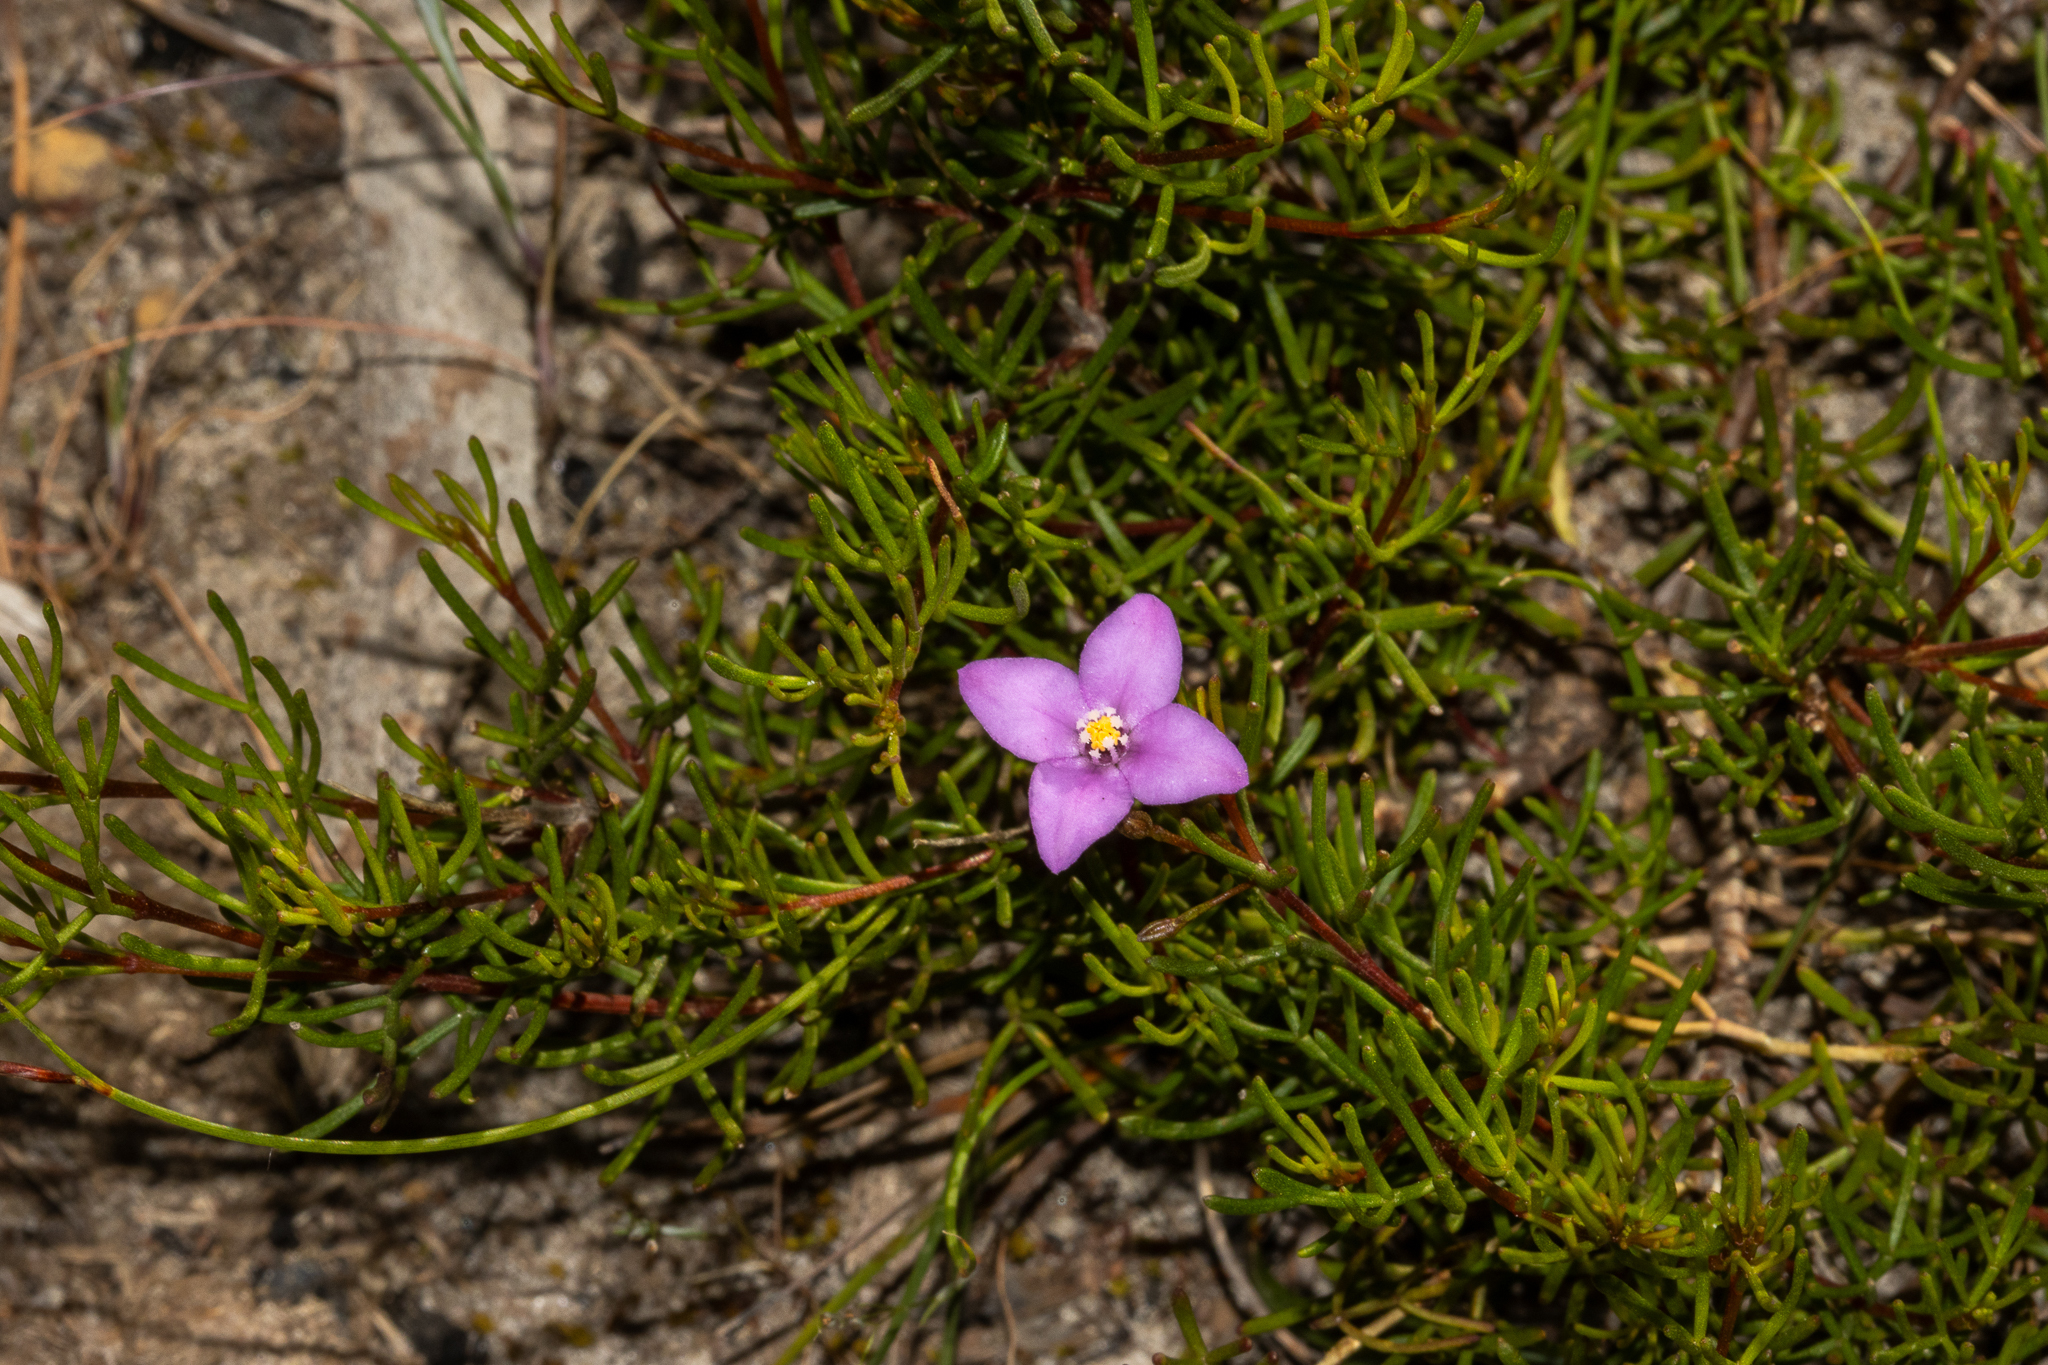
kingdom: Plantae
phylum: Tracheophyta
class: Magnoliopsida
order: Sapindales
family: Rutaceae
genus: Boronia
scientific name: Boronia filifolia
